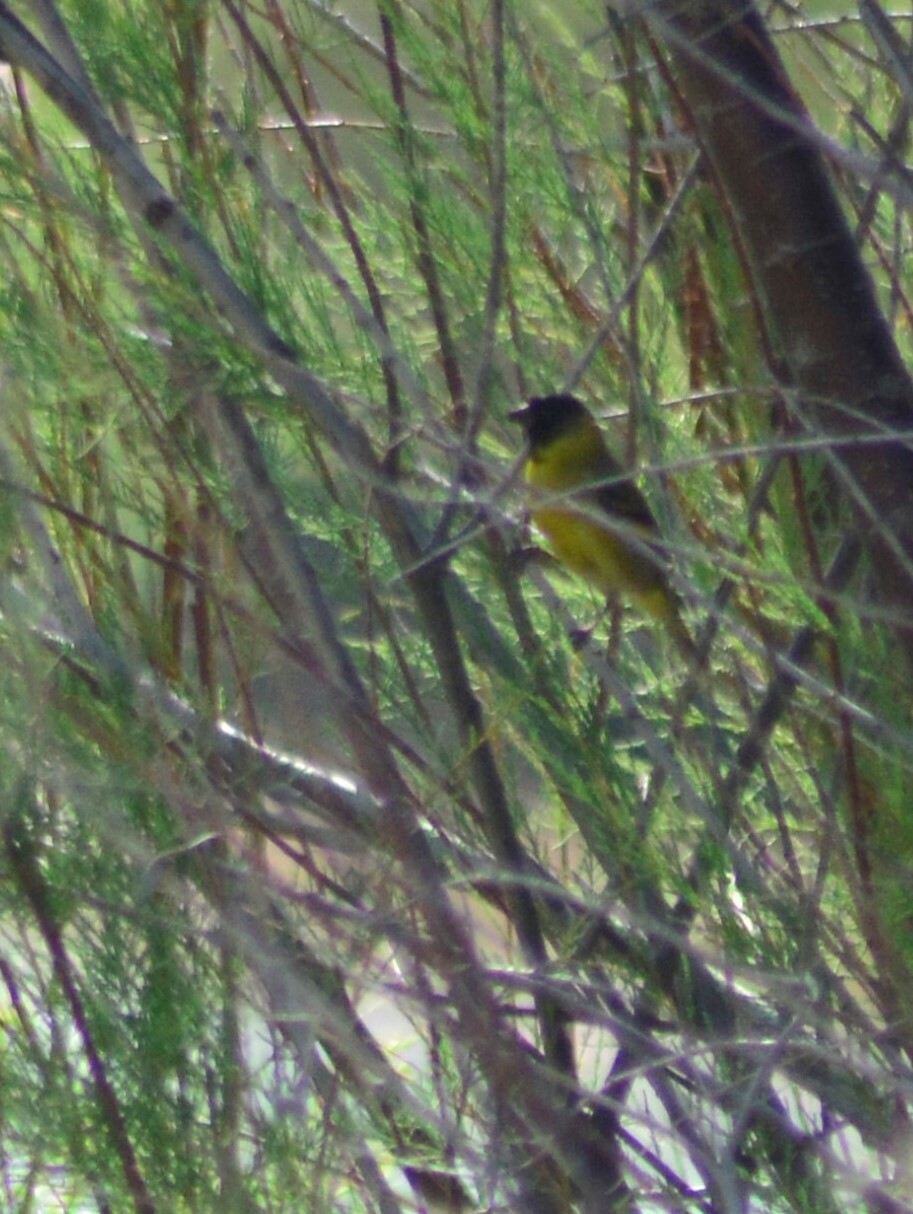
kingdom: Animalia
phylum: Chordata
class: Aves
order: Passeriformes
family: Fringillidae
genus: Spinus
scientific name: Spinus magellanicus
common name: Hooded siskin
